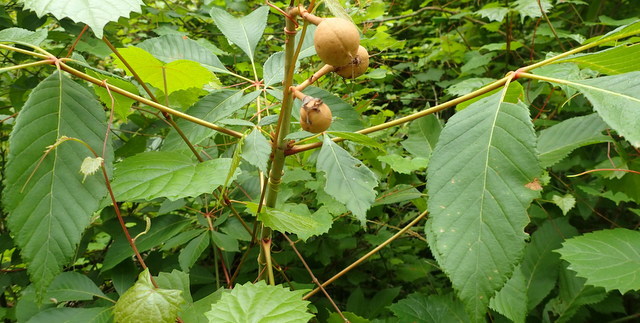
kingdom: Plantae
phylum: Tracheophyta
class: Magnoliopsida
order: Sapindales
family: Sapindaceae
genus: Aesculus
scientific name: Aesculus pavia
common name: Red buckeye
